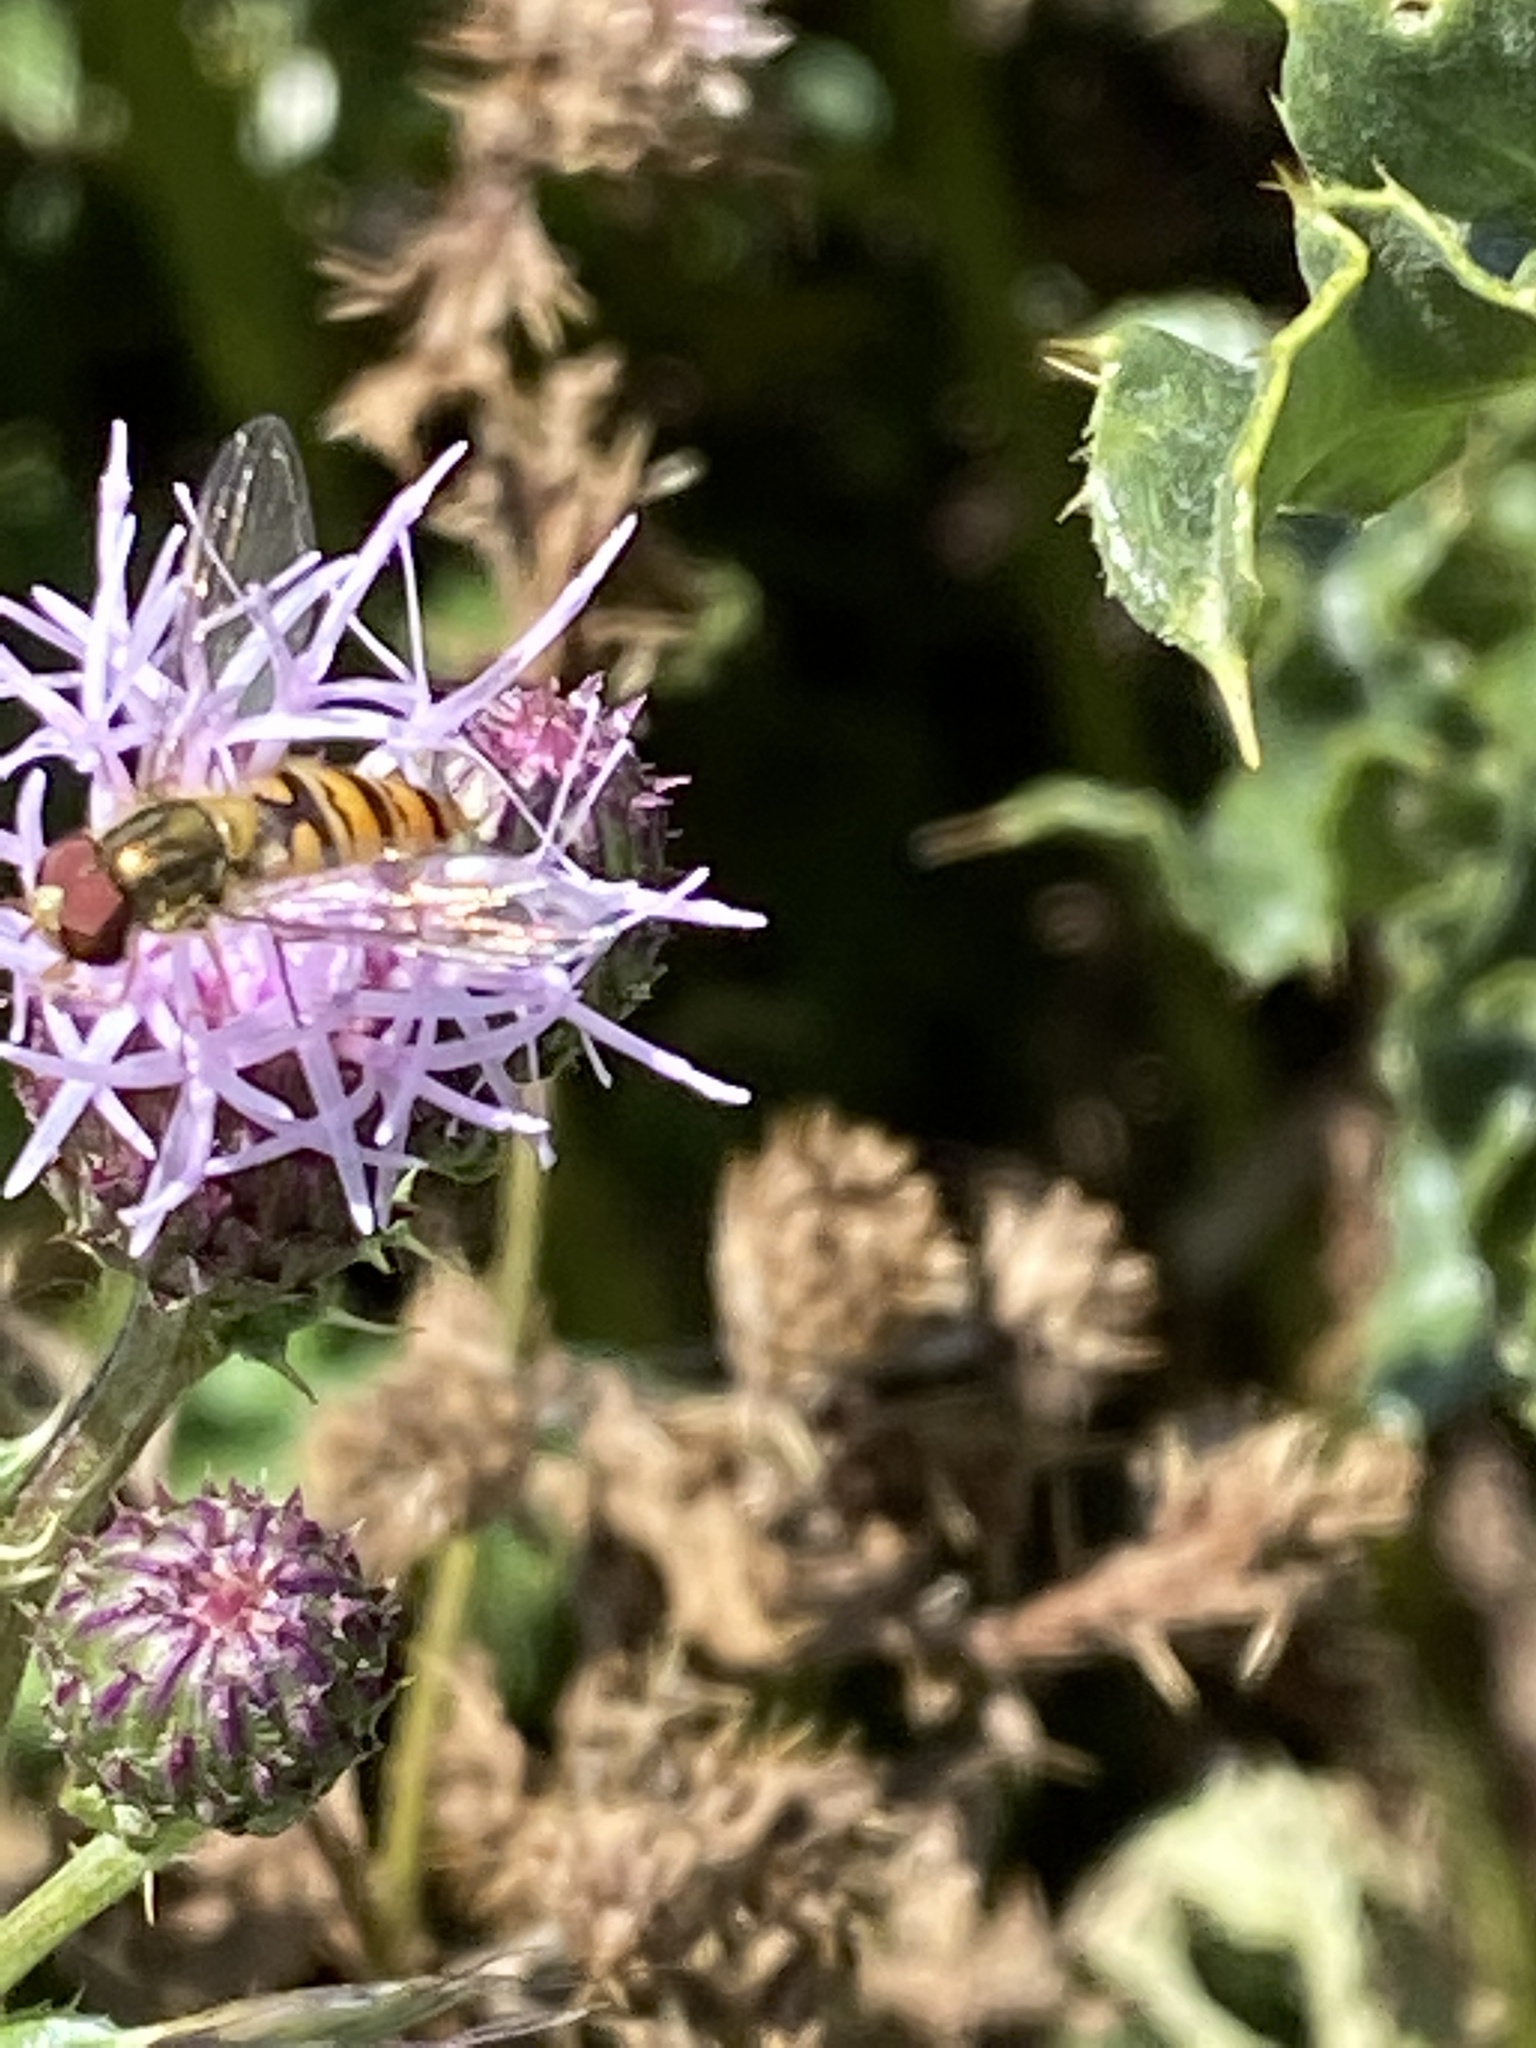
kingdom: Animalia
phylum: Arthropoda
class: Insecta
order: Diptera
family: Syrphidae
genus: Episyrphus
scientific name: Episyrphus balteatus
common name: Marmalade hoverfly
